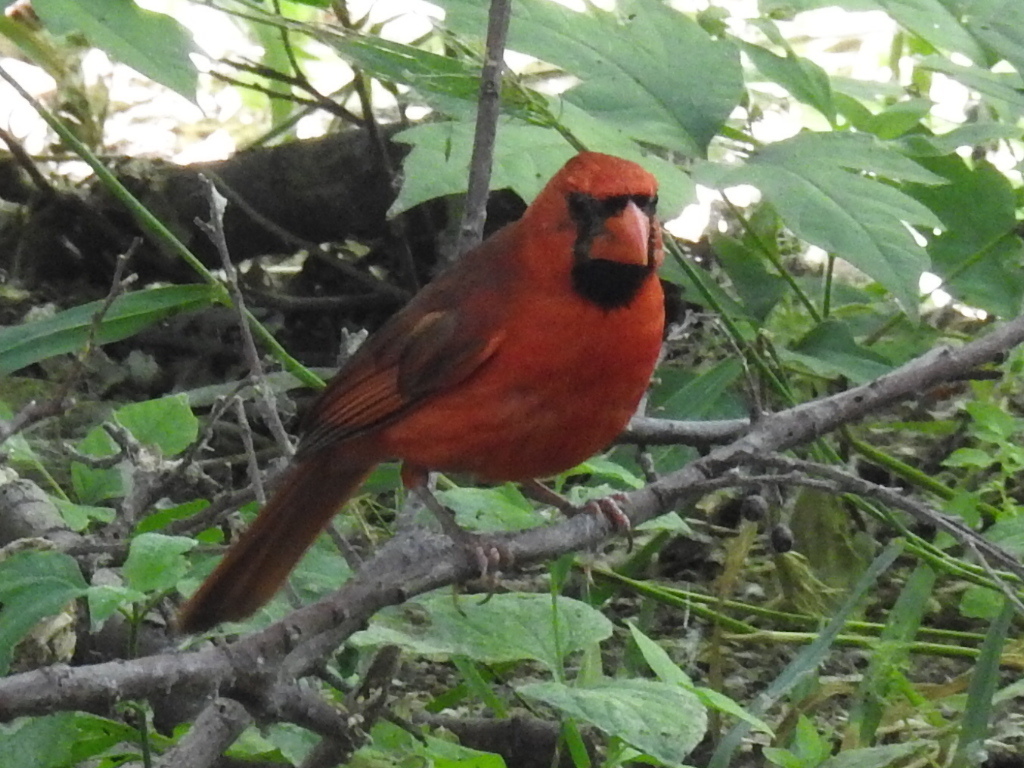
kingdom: Animalia
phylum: Chordata
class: Aves
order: Passeriformes
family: Cardinalidae
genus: Cardinalis
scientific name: Cardinalis cardinalis
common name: Northern cardinal
